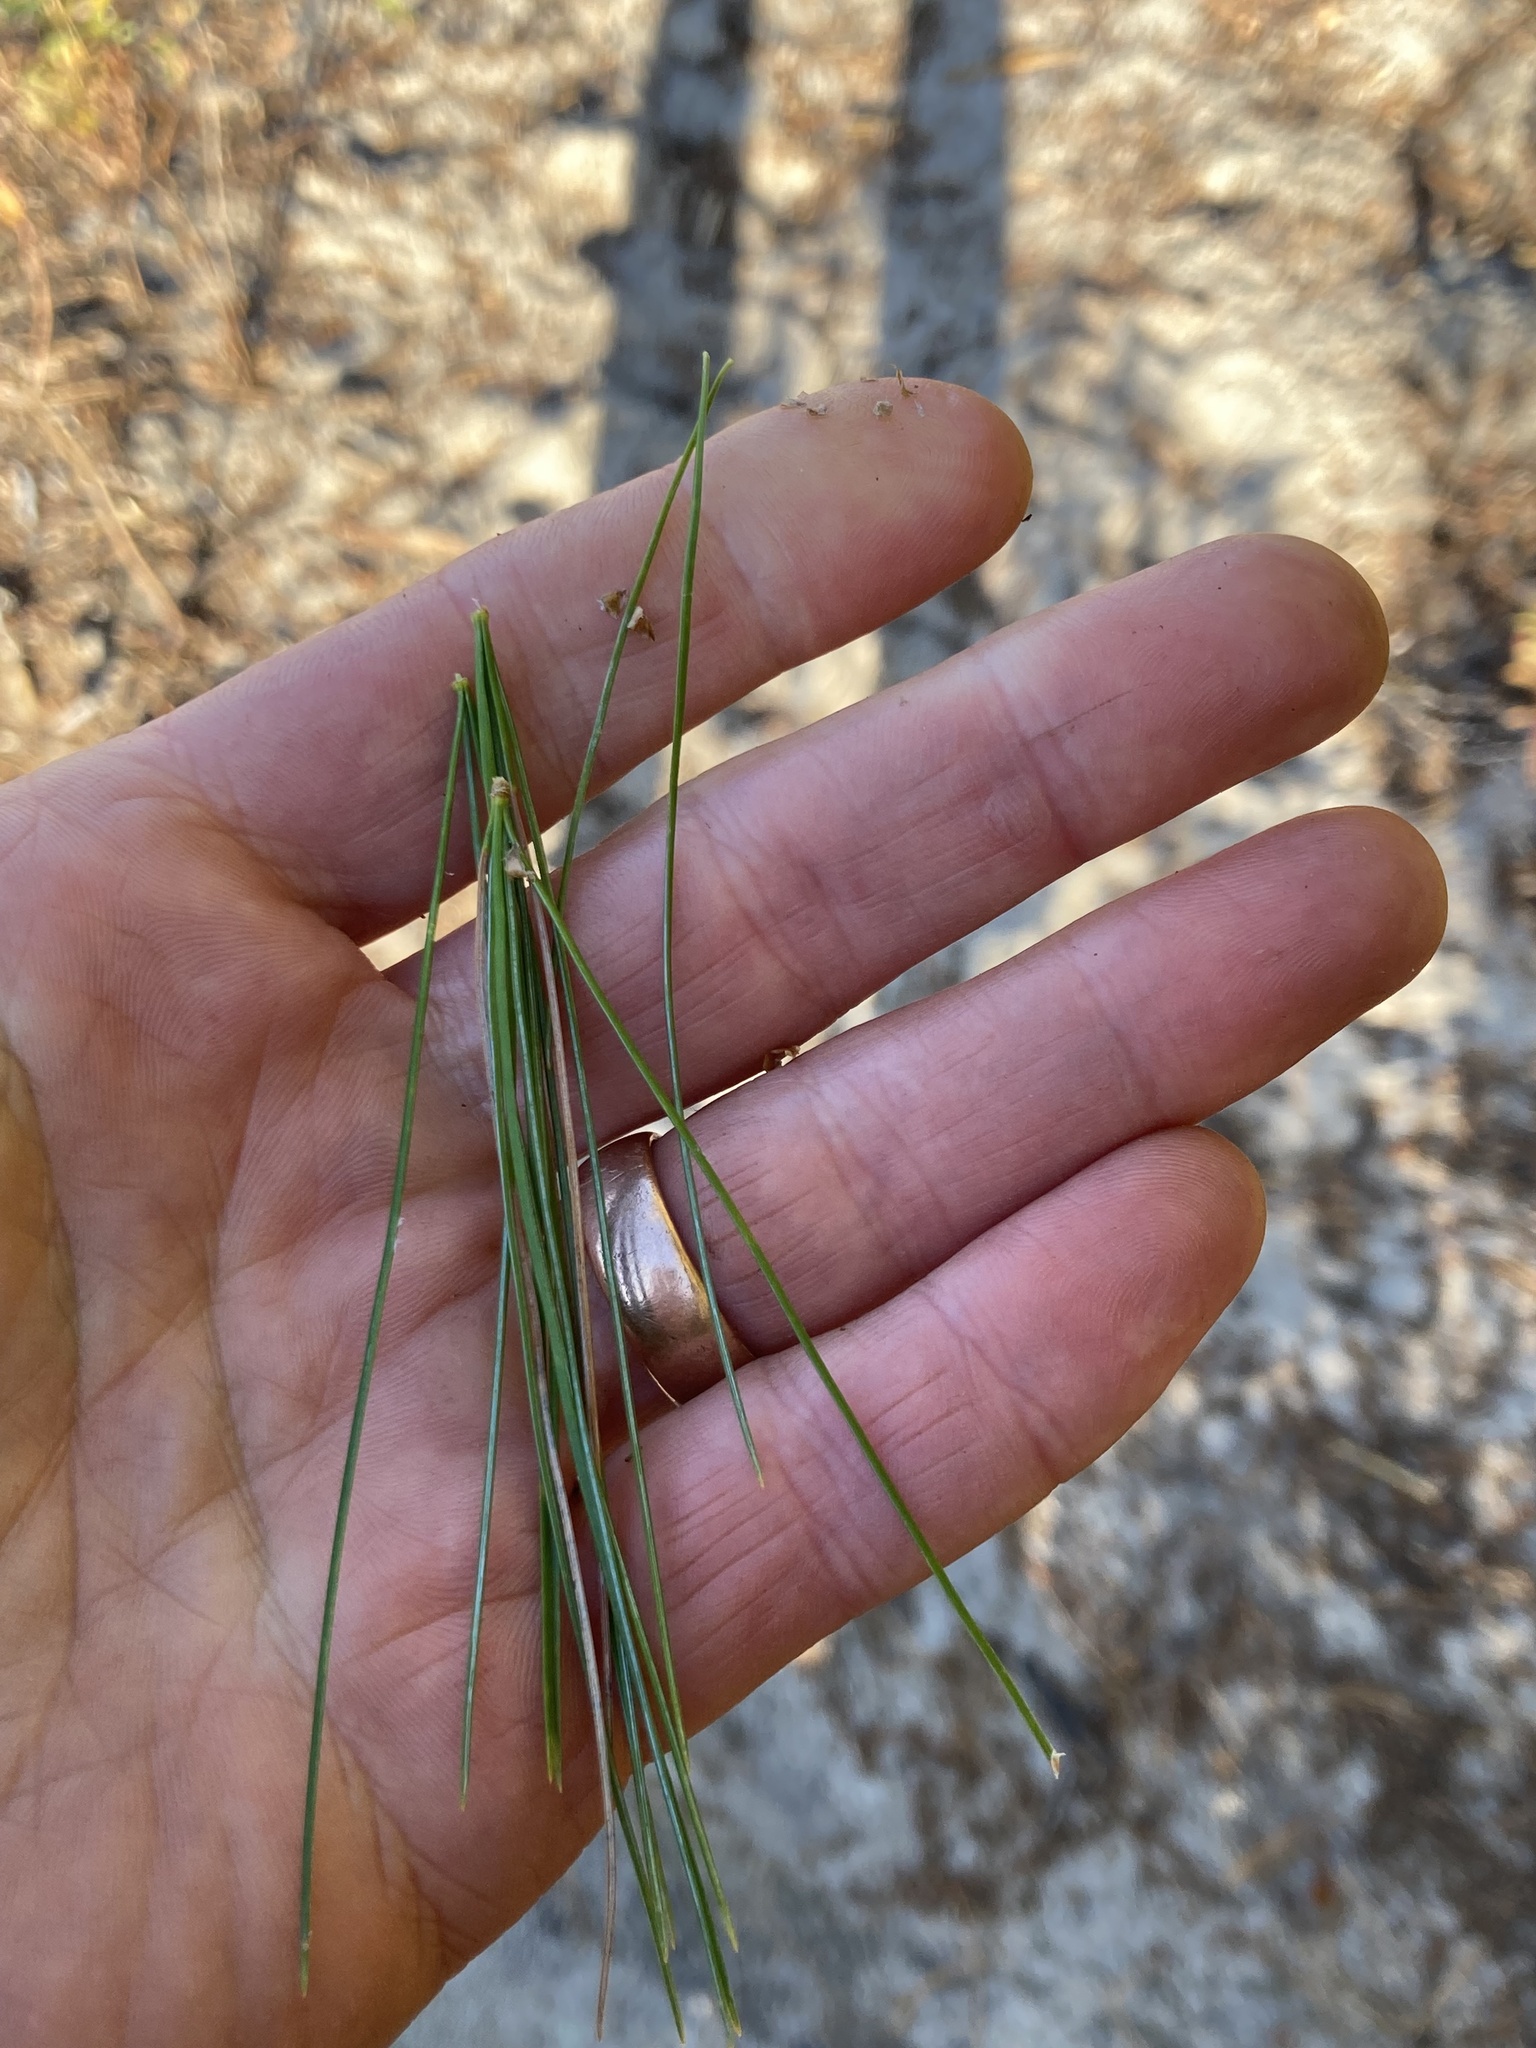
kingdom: Plantae
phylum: Tracheophyta
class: Pinopsida
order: Pinales
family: Pinaceae
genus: Pinus
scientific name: Pinus strobus
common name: Weymouth pine
